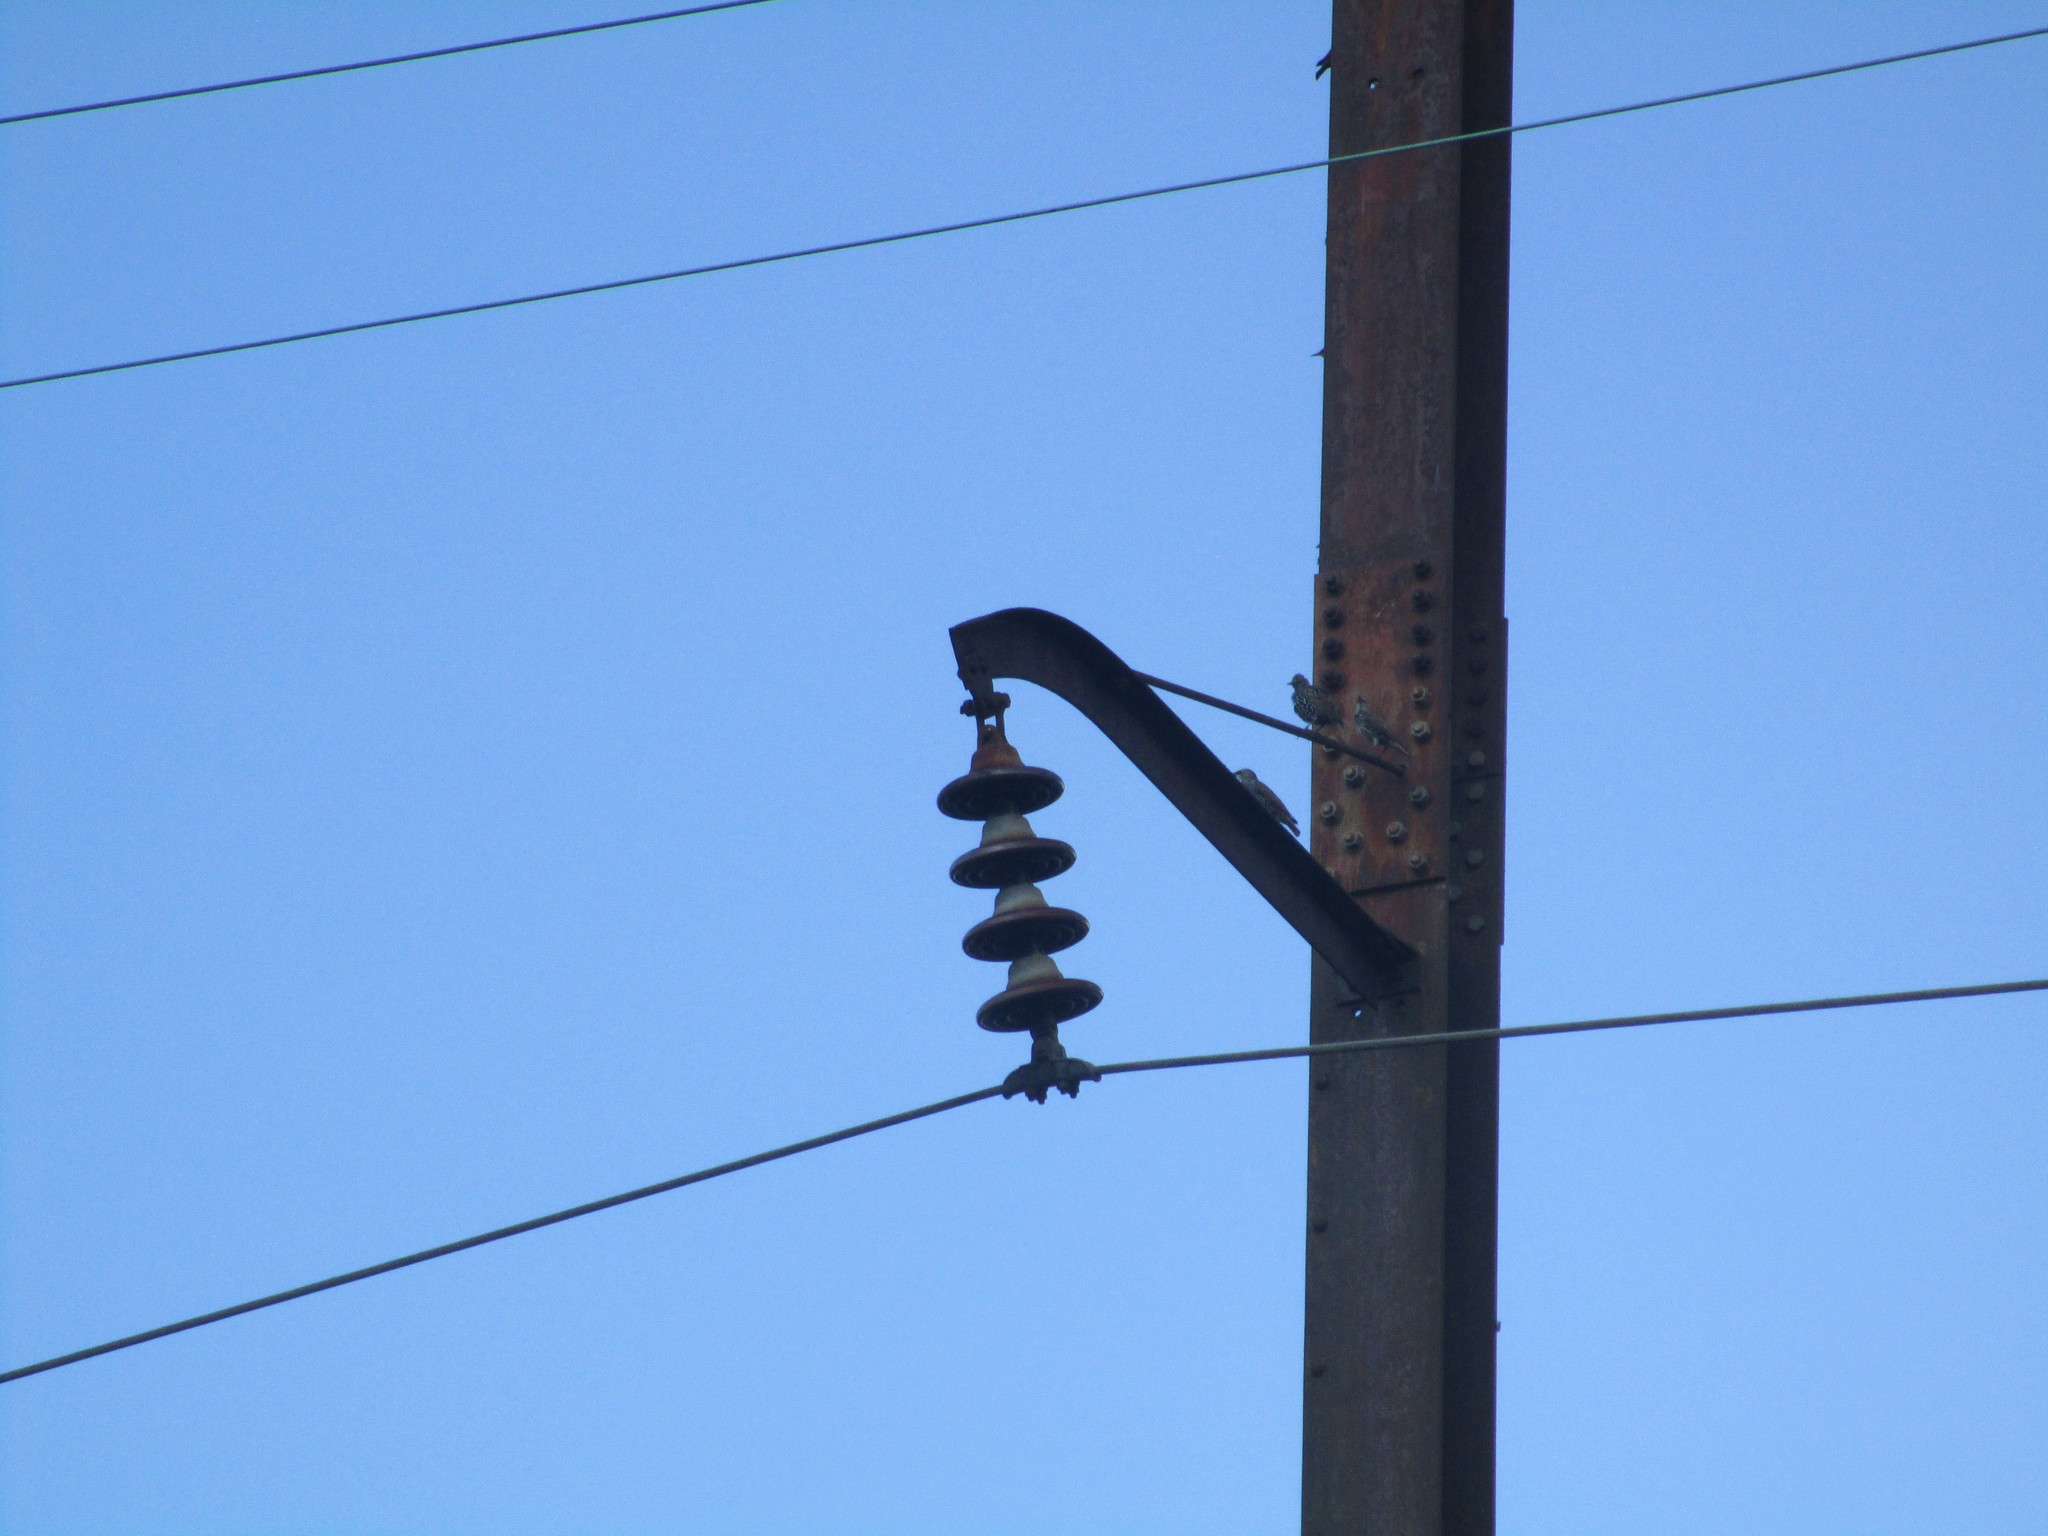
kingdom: Animalia
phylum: Chordata
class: Aves
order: Passeriformes
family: Sturnidae
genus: Sturnus
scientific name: Sturnus vulgaris
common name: Common starling
